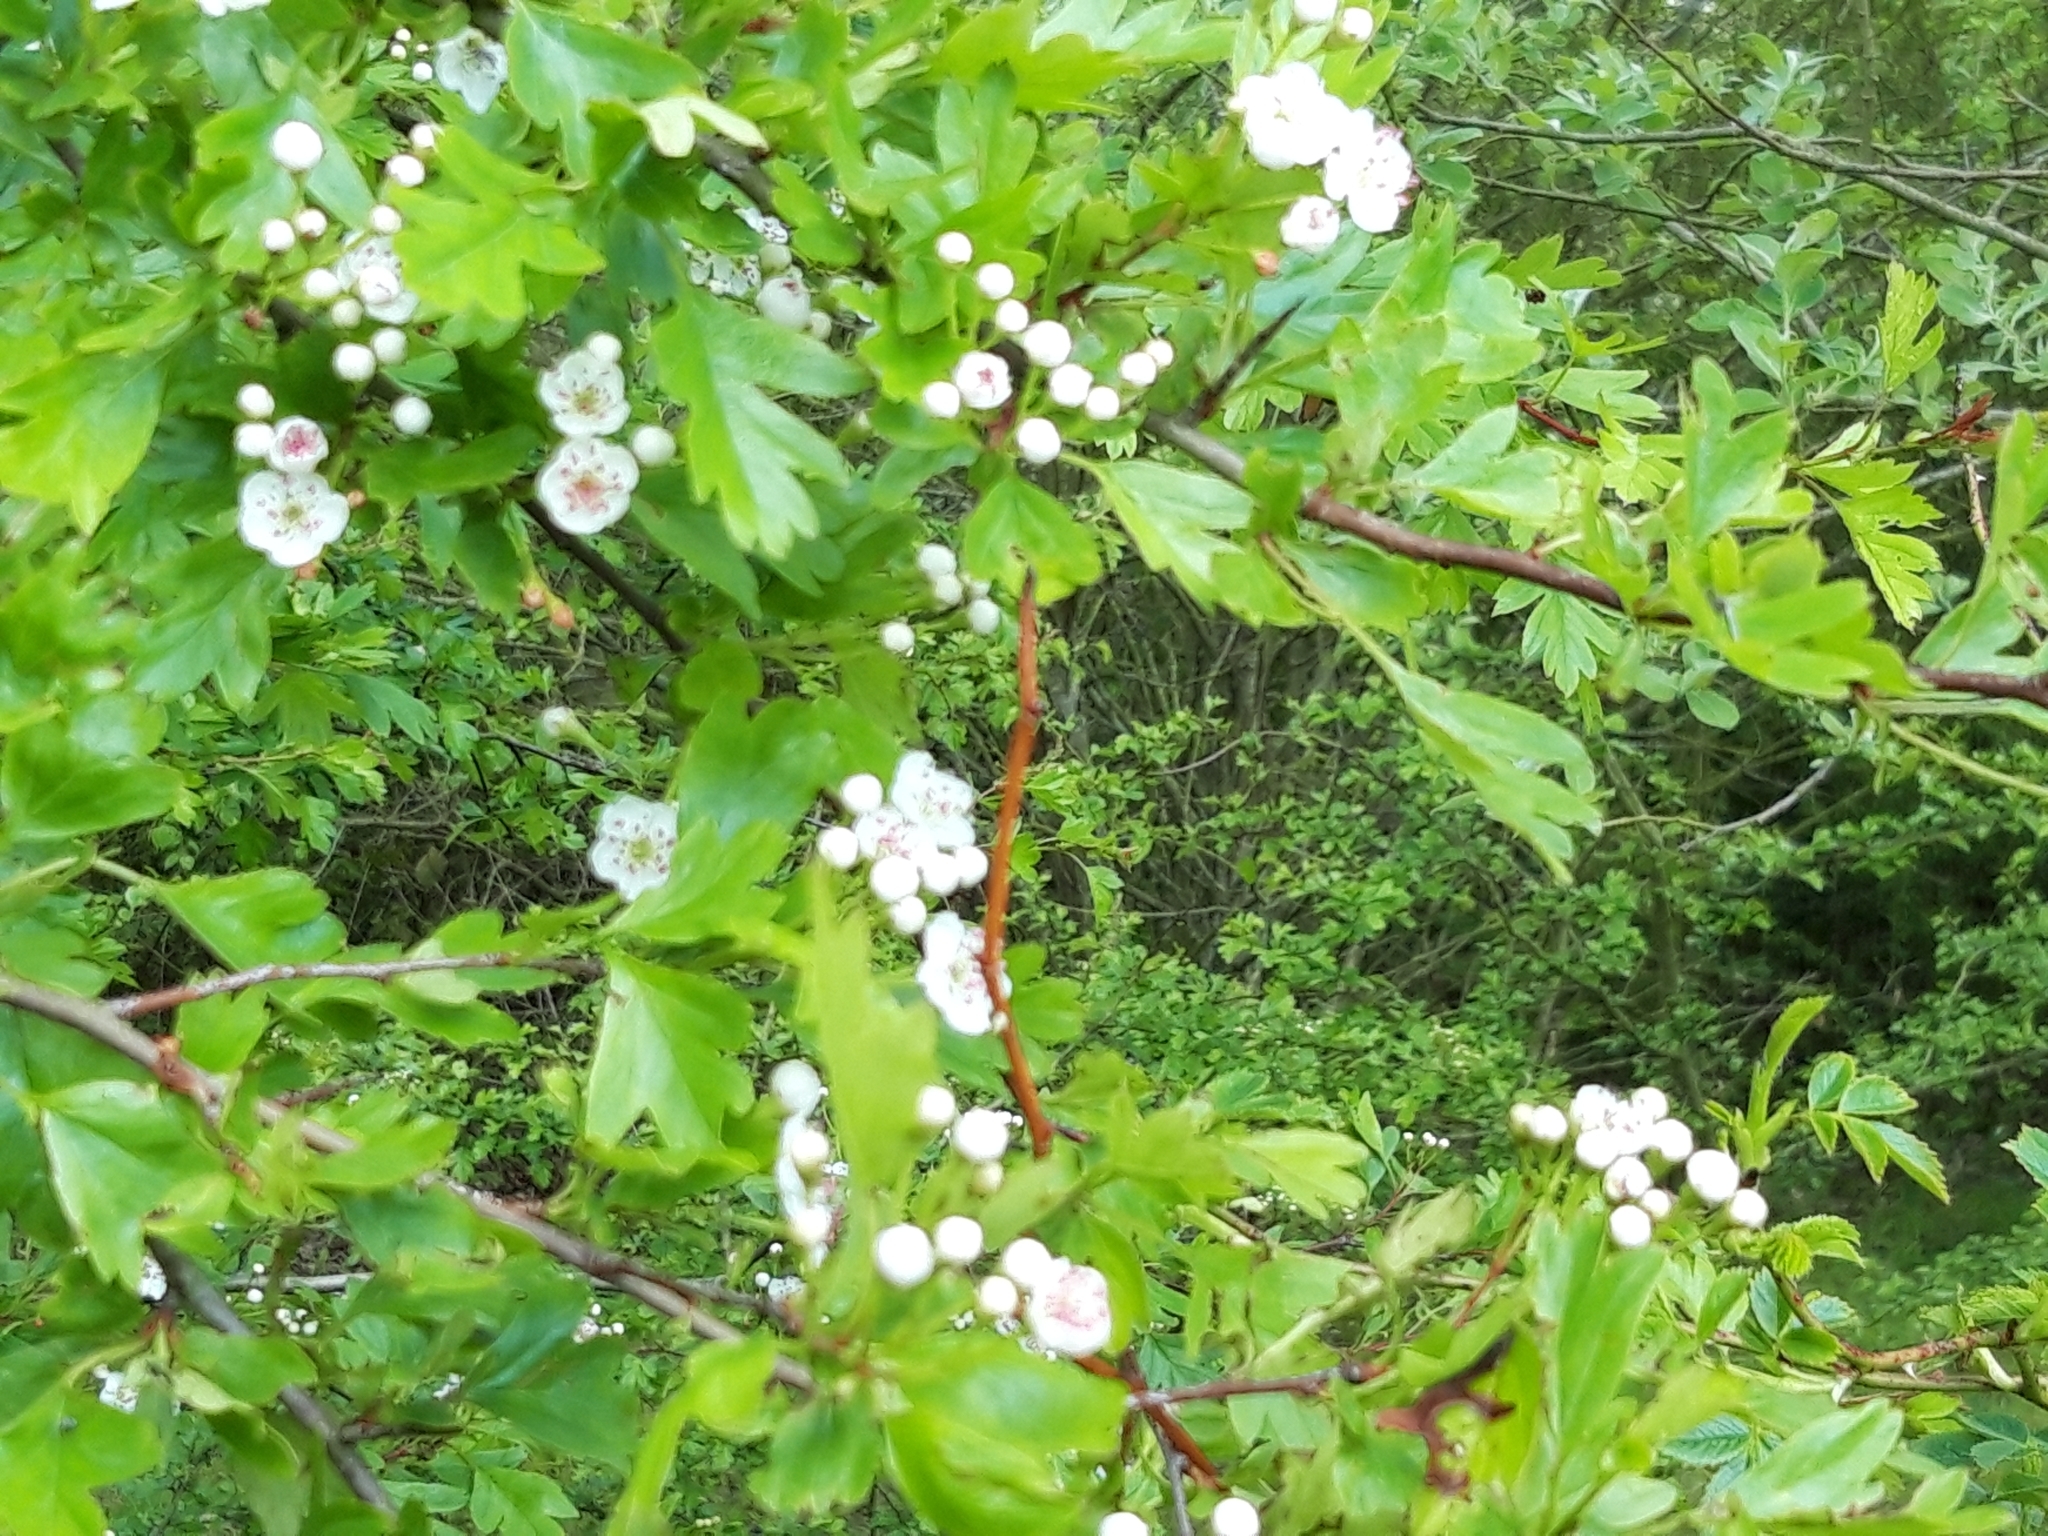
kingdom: Plantae
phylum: Tracheophyta
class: Magnoliopsida
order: Rosales
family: Rosaceae
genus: Crataegus
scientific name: Crataegus monogyna
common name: Hawthorn
